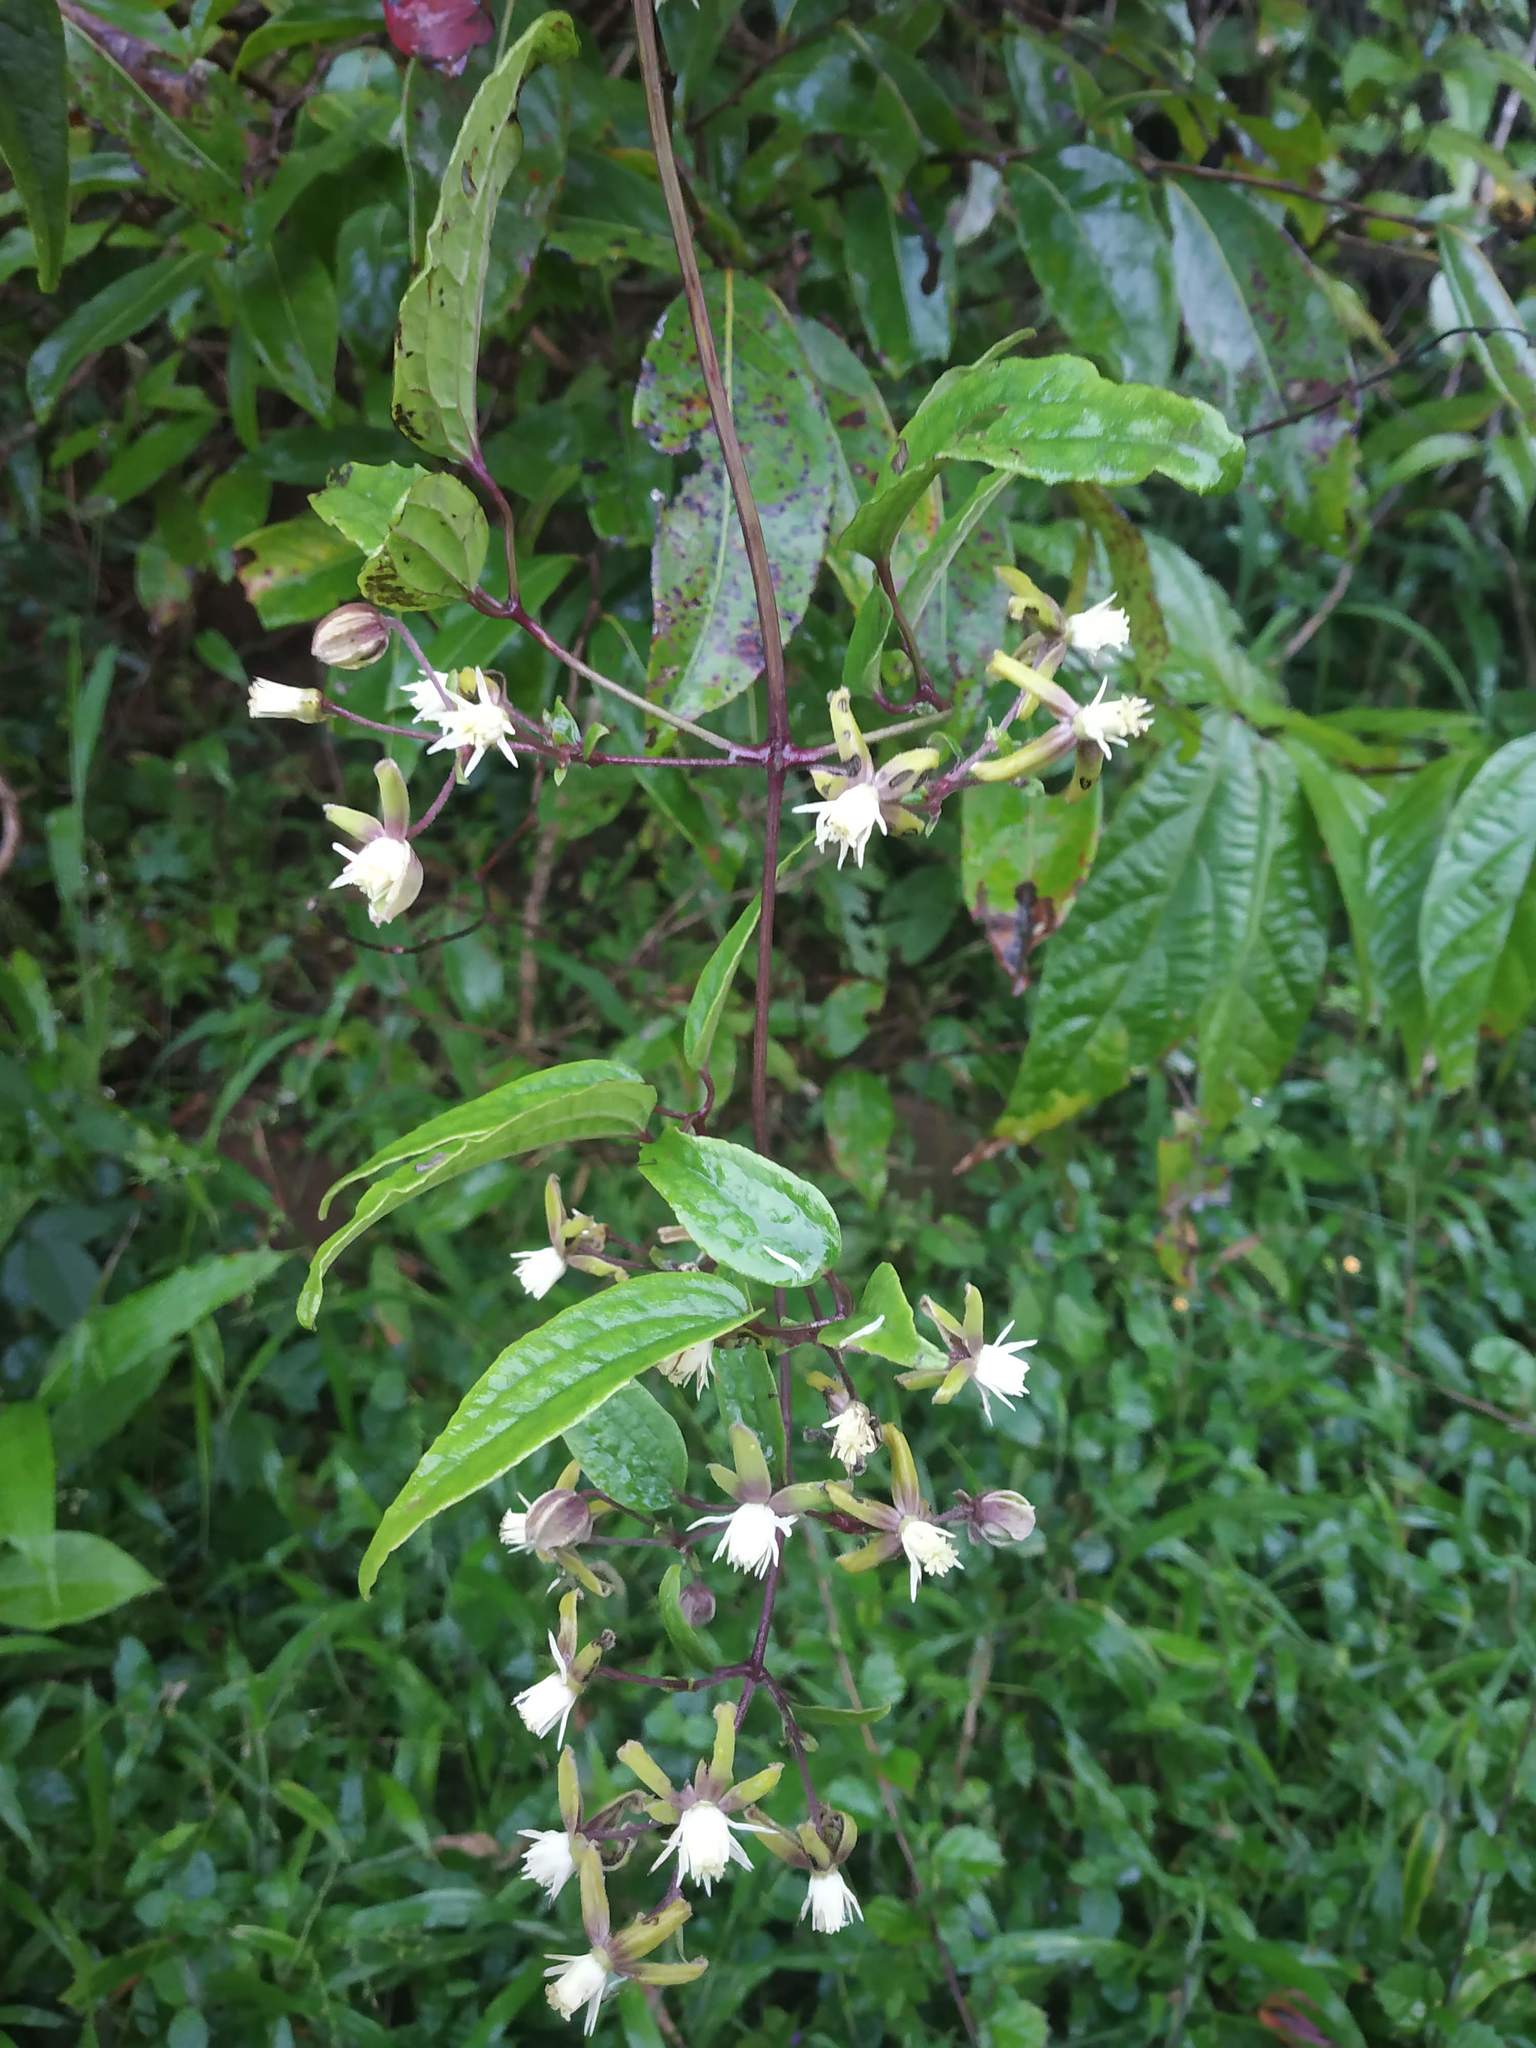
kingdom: Plantae
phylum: Tracheophyta
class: Magnoliopsida
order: Ranunculales
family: Ranunculaceae
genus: Clematis
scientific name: Clematis hedysarifolia
